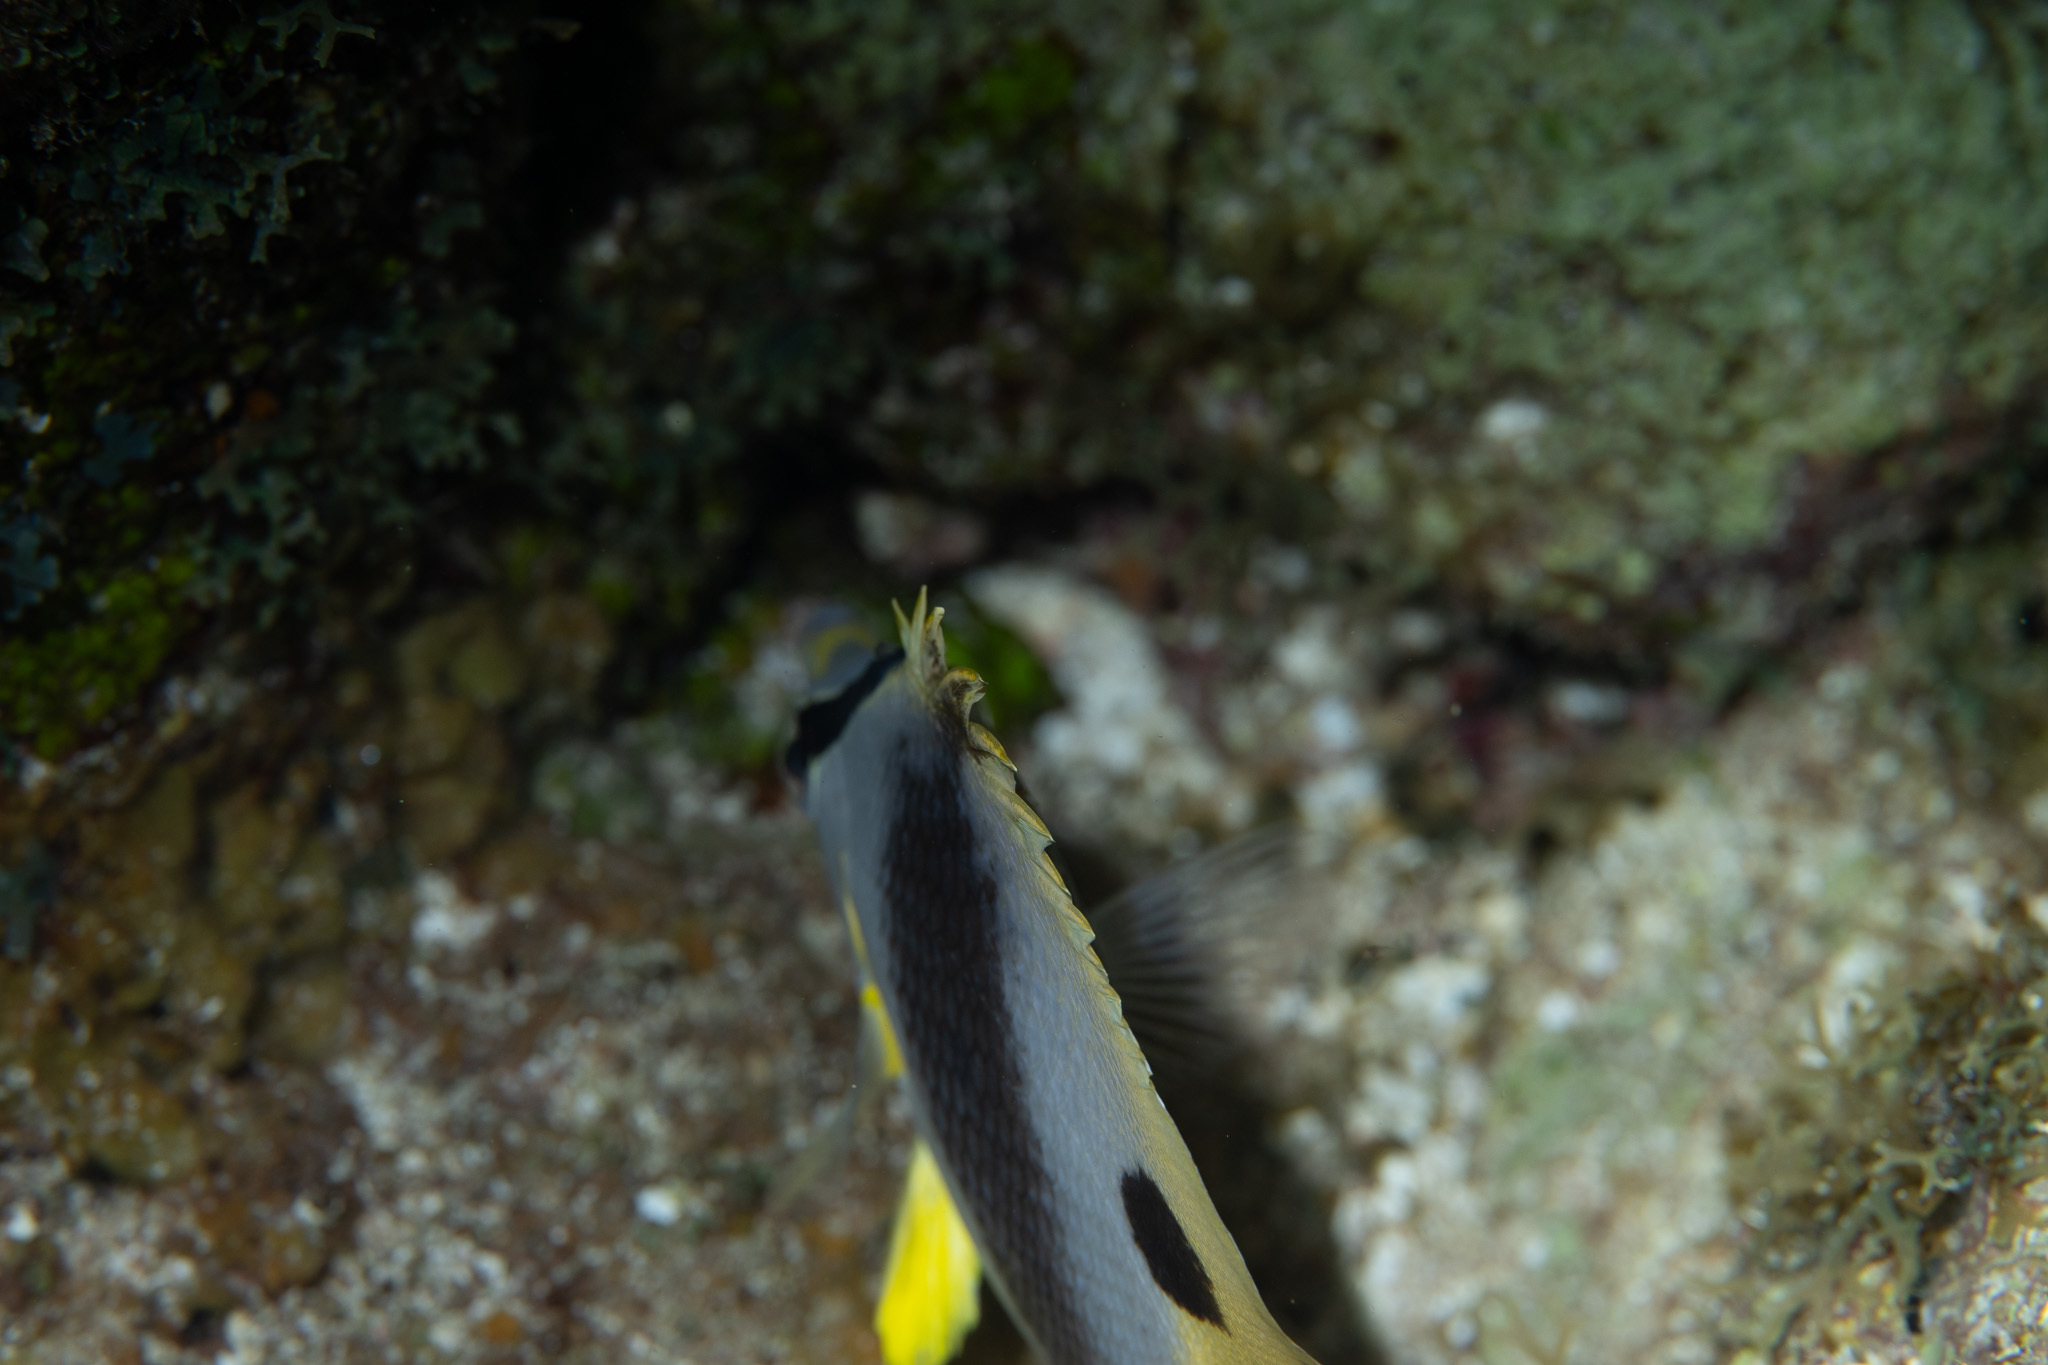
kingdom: Animalia
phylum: Chordata
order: Perciformes
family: Chaetodontidae
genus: Chaetodon
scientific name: Chaetodon capistratus
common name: Kete
